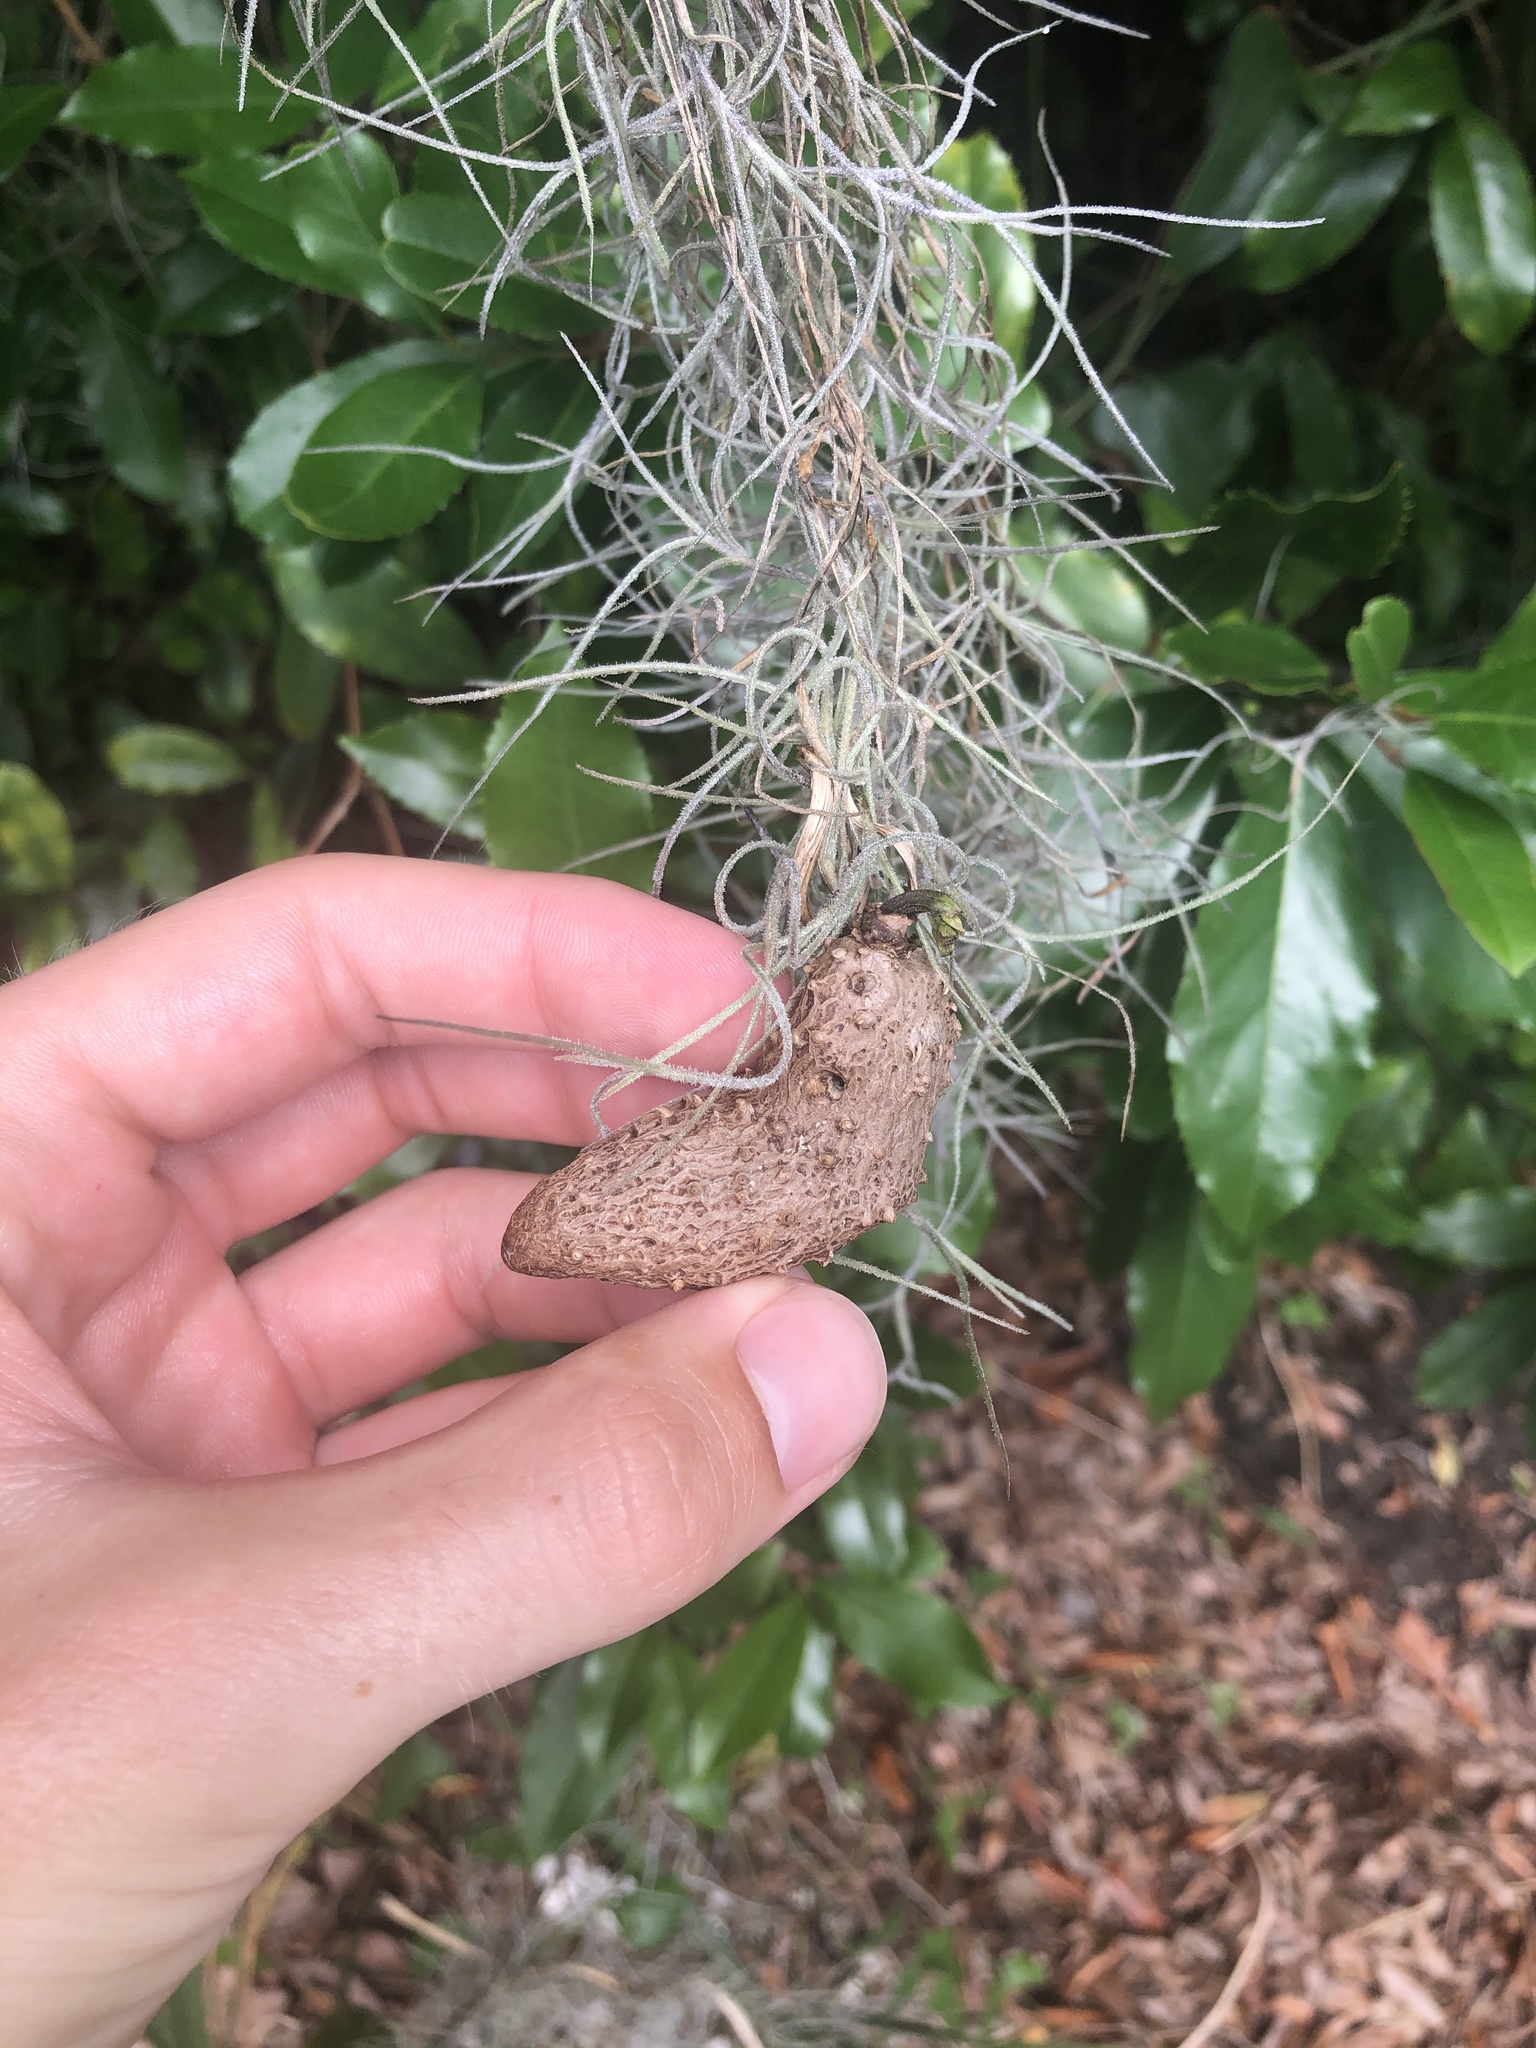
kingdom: Plantae
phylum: Tracheophyta
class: Liliopsida
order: Dioscoreales
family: Dioscoreaceae
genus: Dioscorea
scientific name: Dioscorea alata
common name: Water yam
